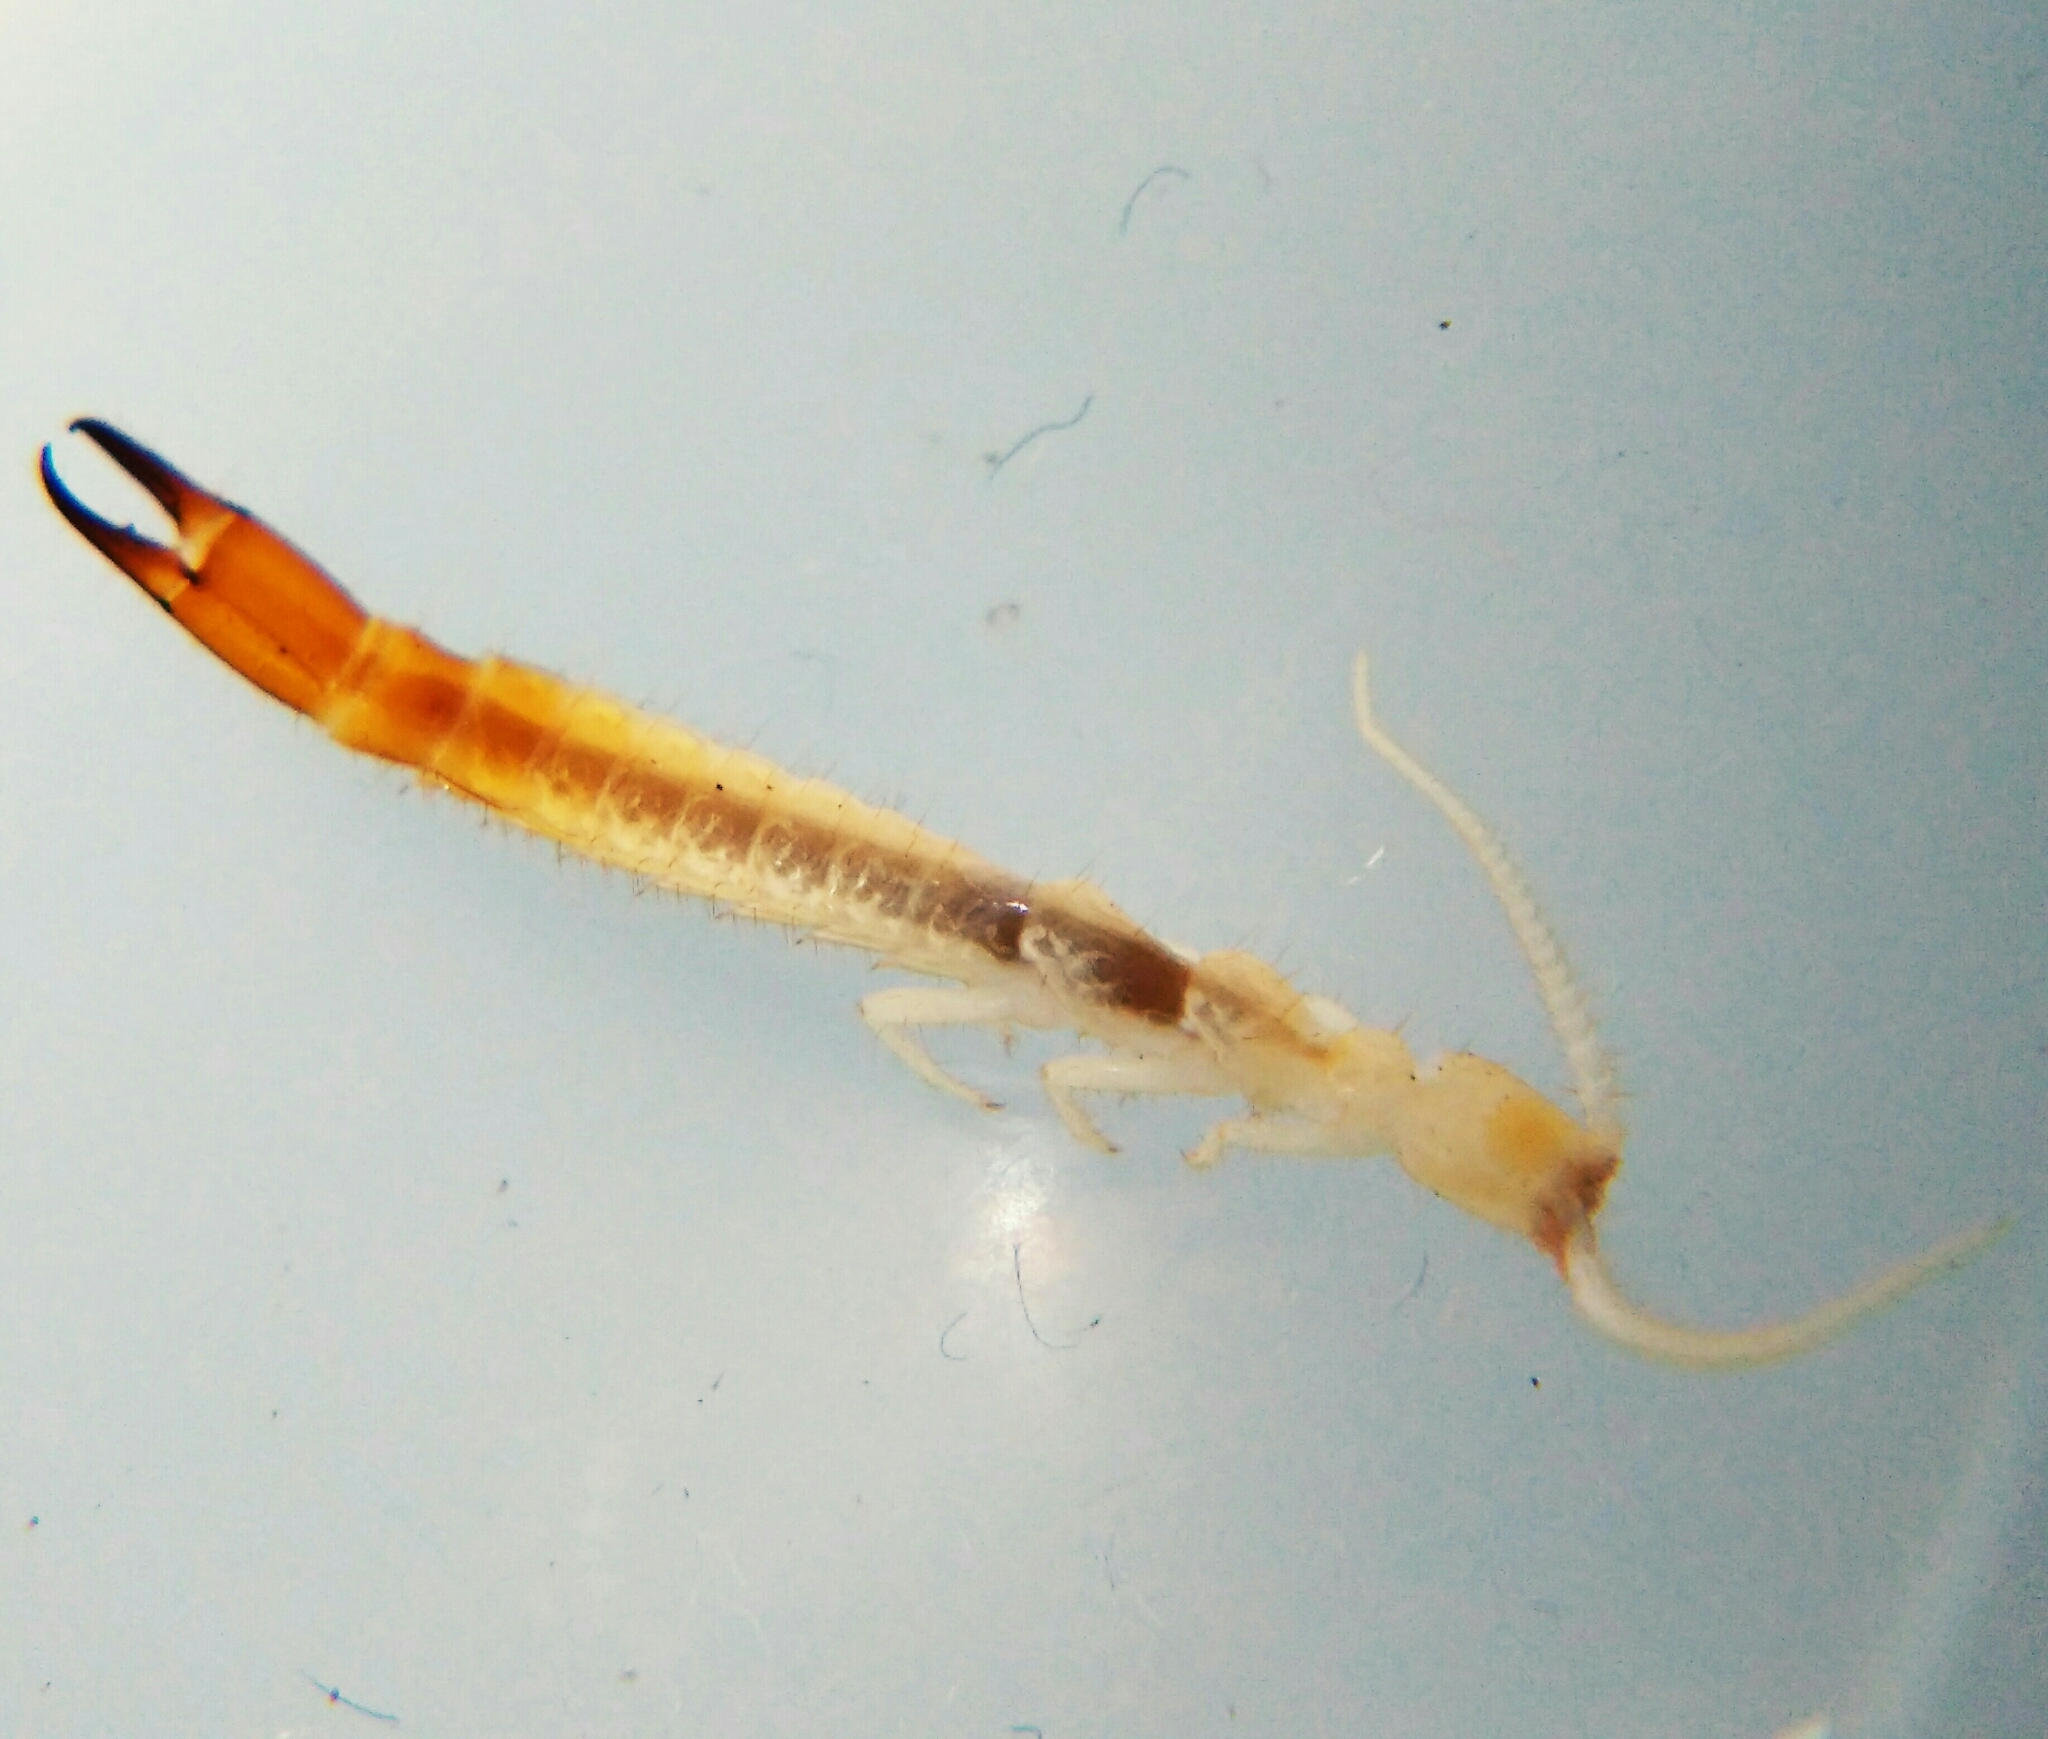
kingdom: Animalia
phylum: Arthropoda
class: Diplura
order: Diplura
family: Japygidae
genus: Metajapyx
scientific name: Metajapyx braueri
